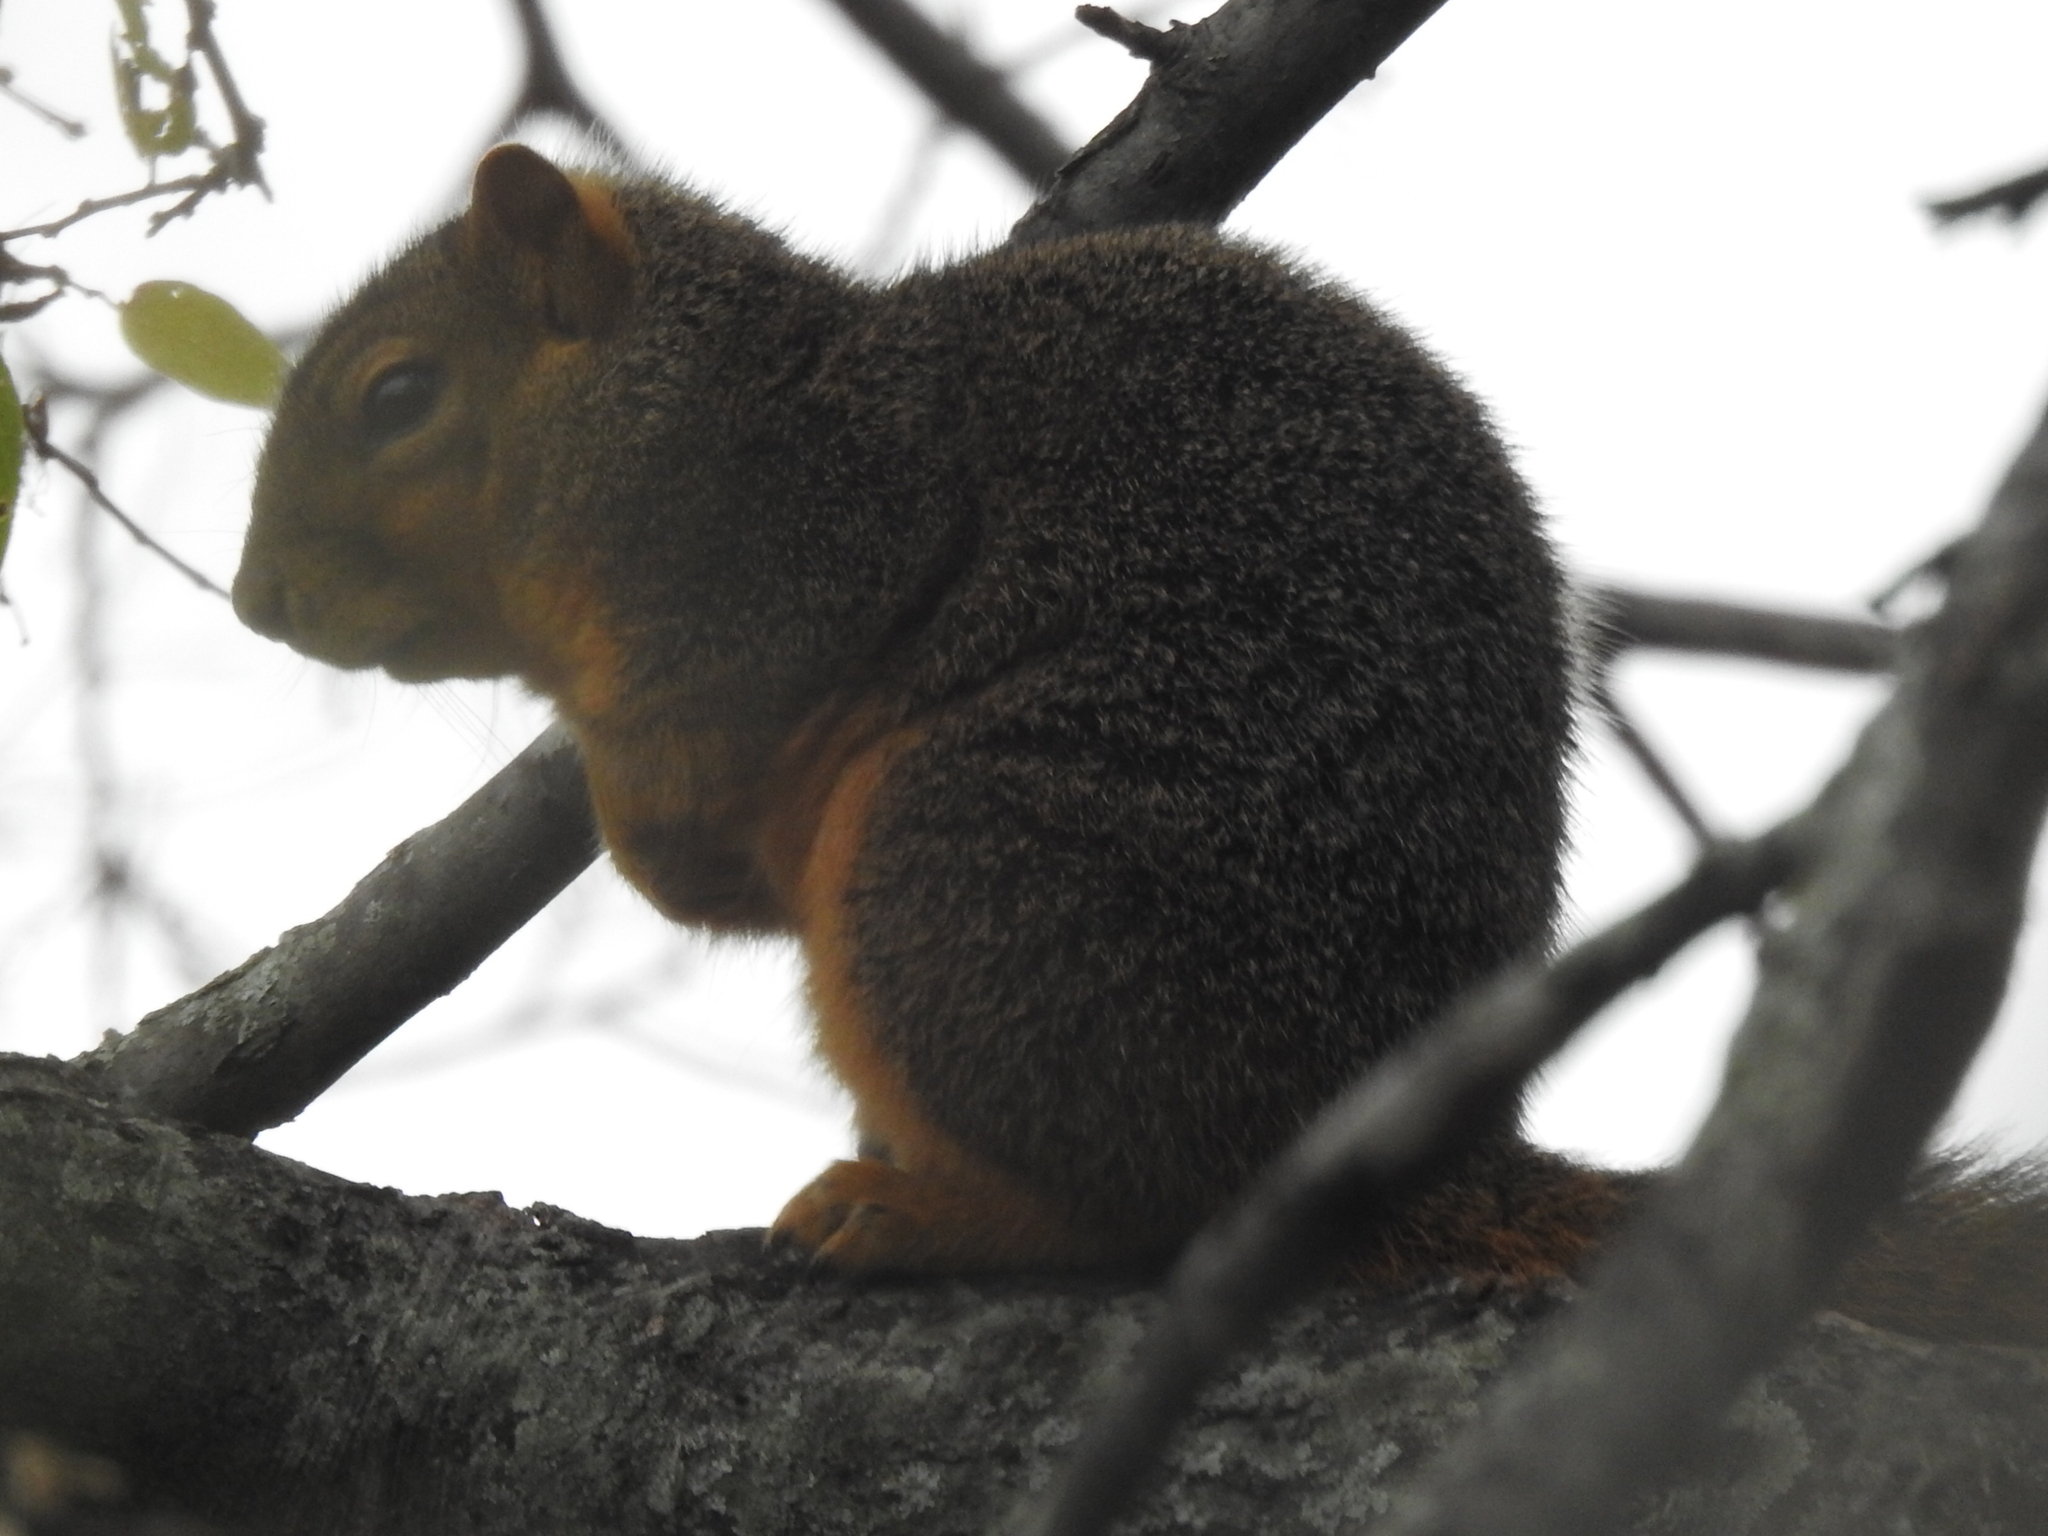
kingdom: Animalia
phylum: Chordata
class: Mammalia
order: Rodentia
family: Sciuridae
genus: Sciurus
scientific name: Sciurus niger
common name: Fox squirrel
